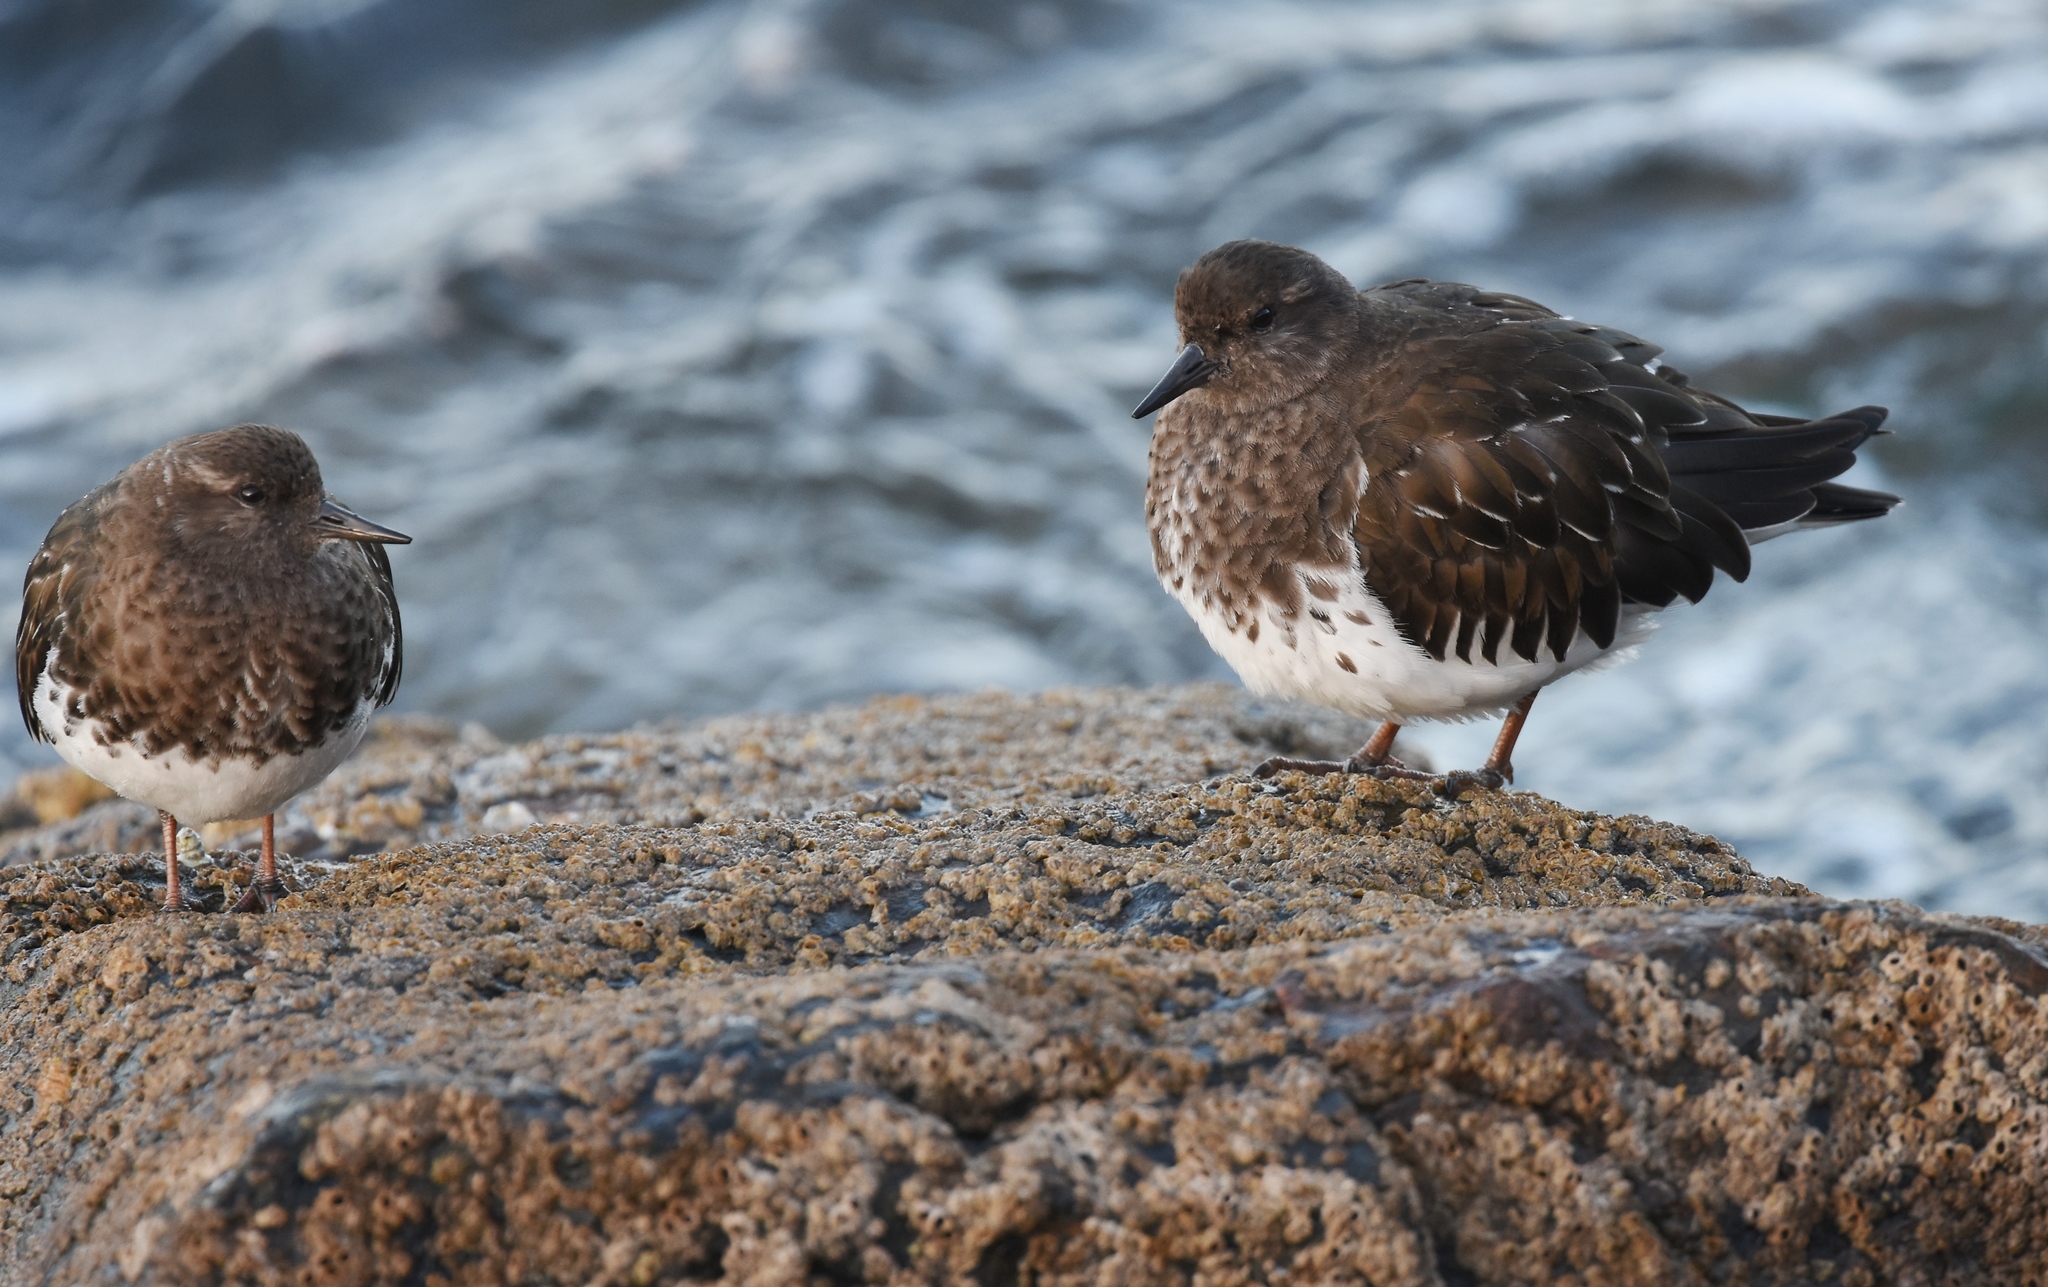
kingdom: Animalia
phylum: Chordata
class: Aves
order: Charadriiformes
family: Scolopacidae
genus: Arenaria
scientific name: Arenaria melanocephala
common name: Black turnstone
